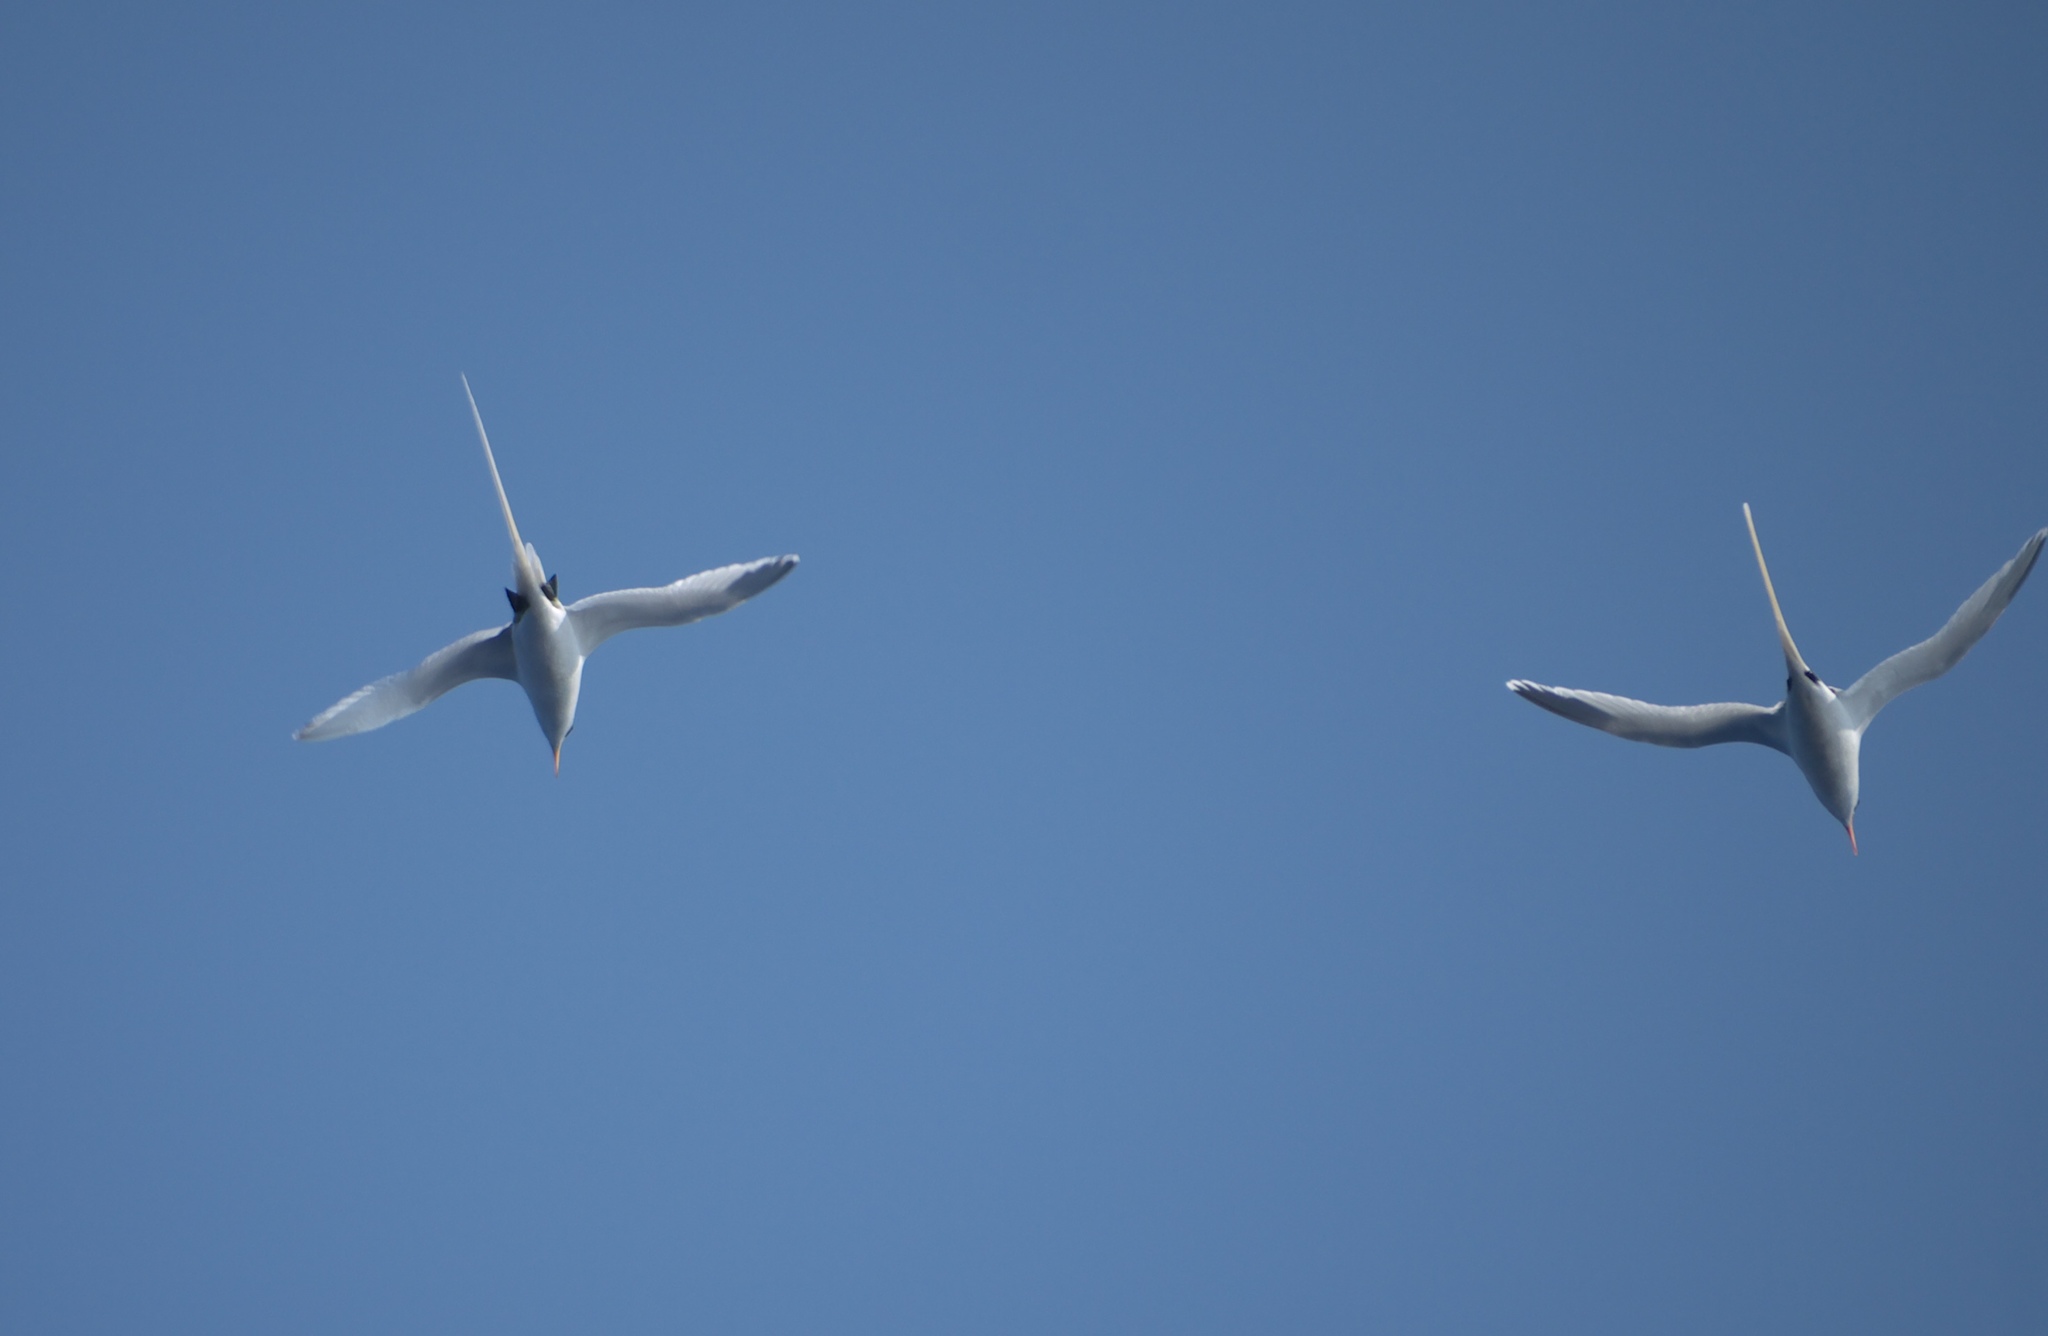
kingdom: Animalia
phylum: Chordata
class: Aves
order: Phaethontiformes
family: Phaethontidae
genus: Phaethon
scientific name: Phaethon lepturus
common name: White-tailed tropicbird
